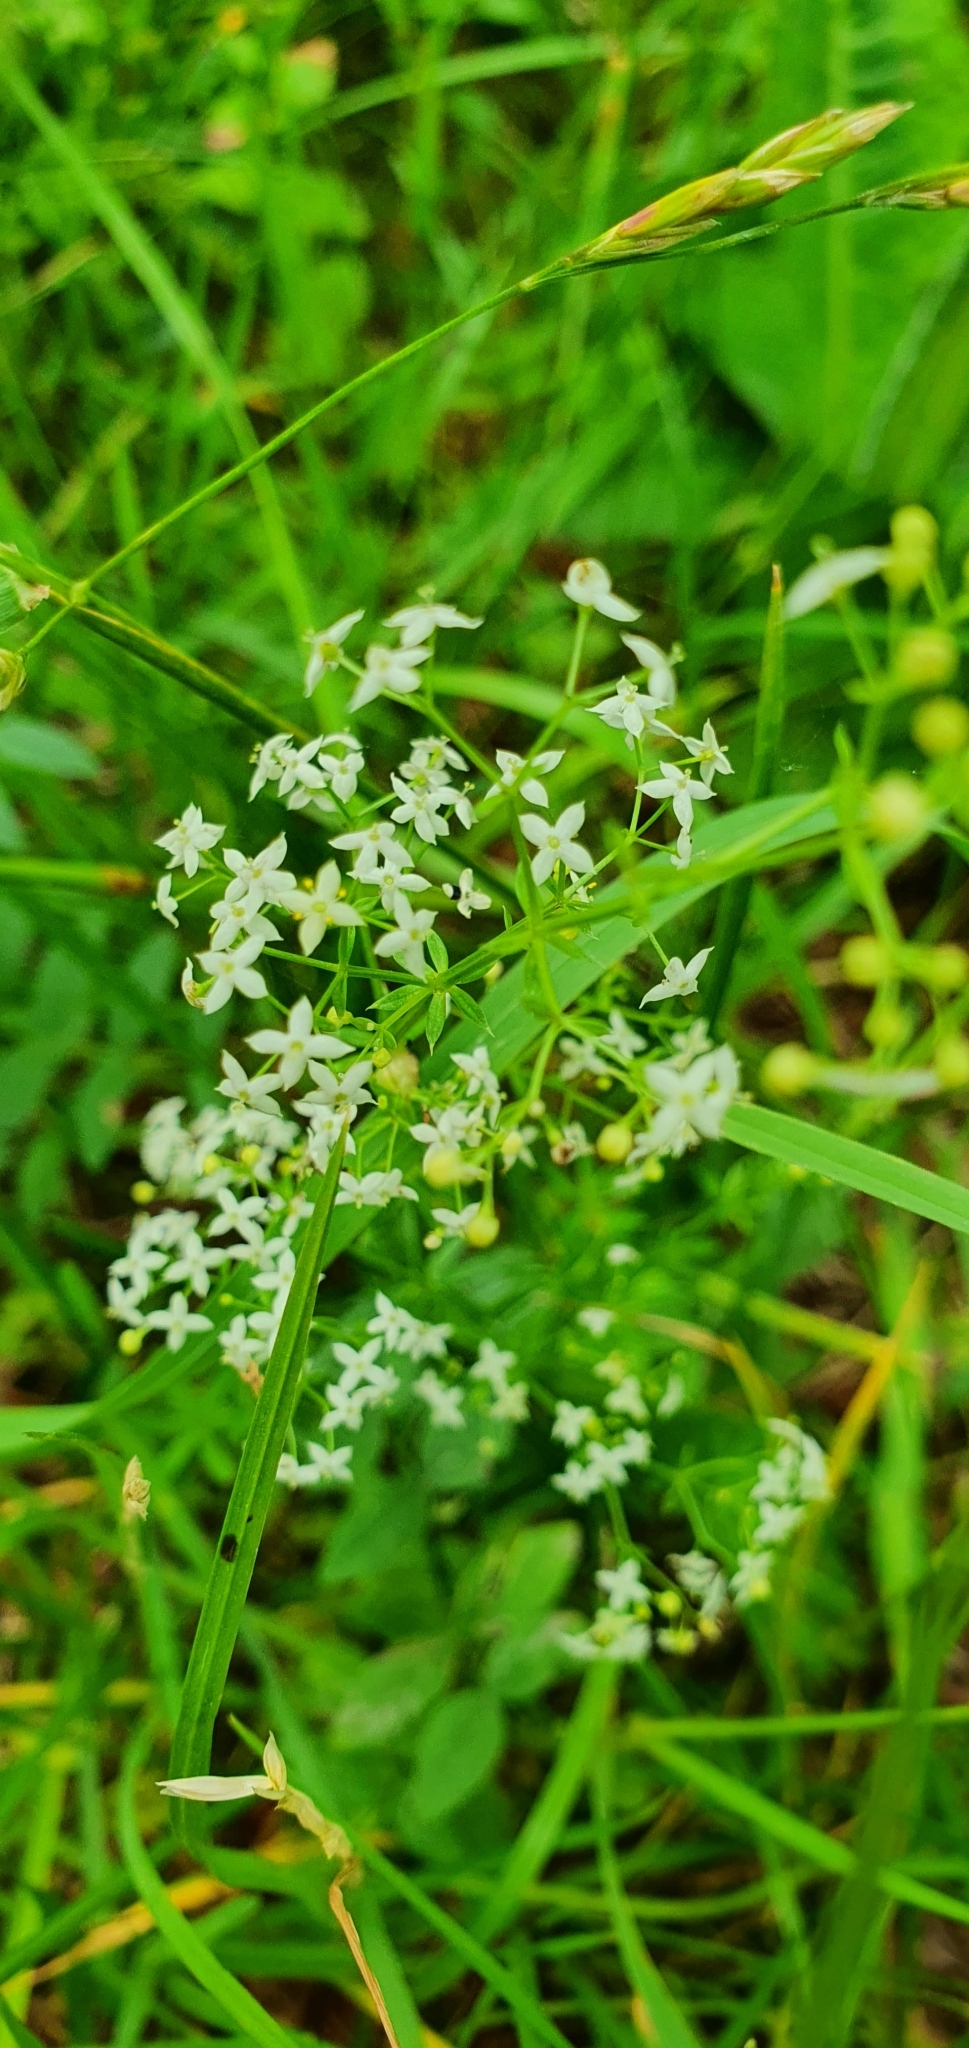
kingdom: Plantae
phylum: Tracheophyta
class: Magnoliopsida
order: Gentianales
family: Rubiaceae
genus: Galium
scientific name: Galium album
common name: White bedstraw
